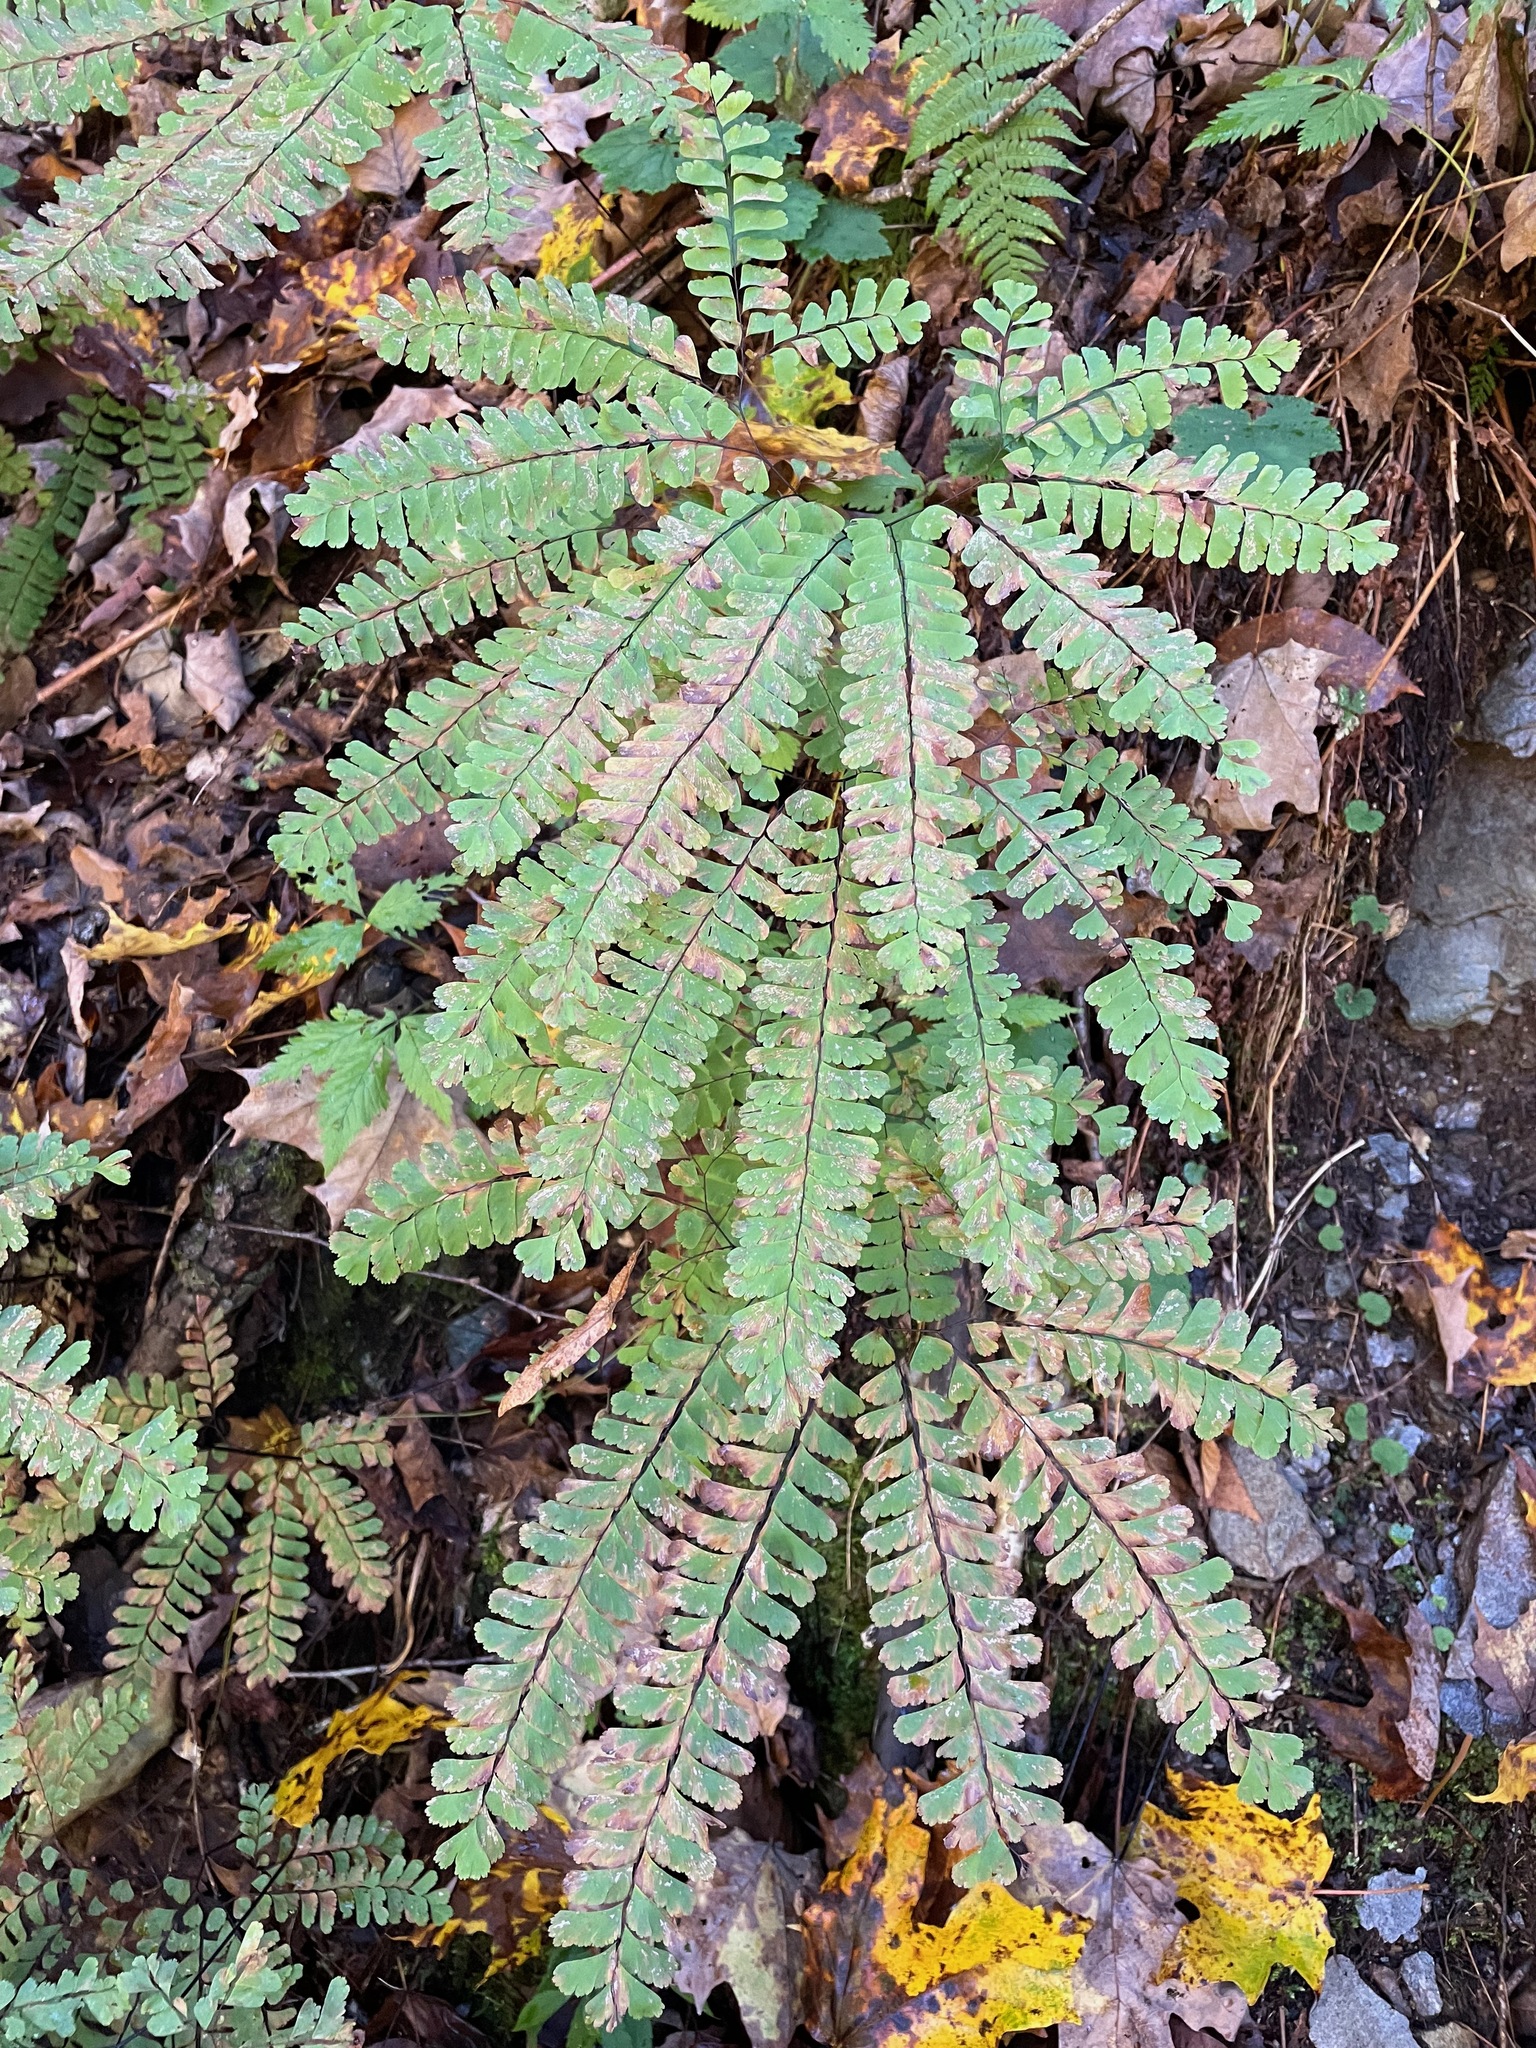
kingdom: Plantae
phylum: Tracheophyta
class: Polypodiopsida
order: Polypodiales
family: Pteridaceae
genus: Adiantum
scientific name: Adiantum pedatum
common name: Five-finger fern
